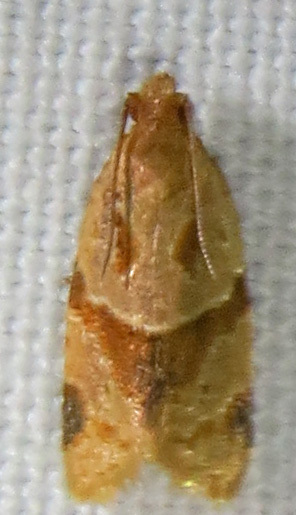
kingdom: Animalia
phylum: Arthropoda
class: Insecta
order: Lepidoptera
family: Tortricidae
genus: Clepsis
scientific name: Clepsis peritana
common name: Garden tortrix
